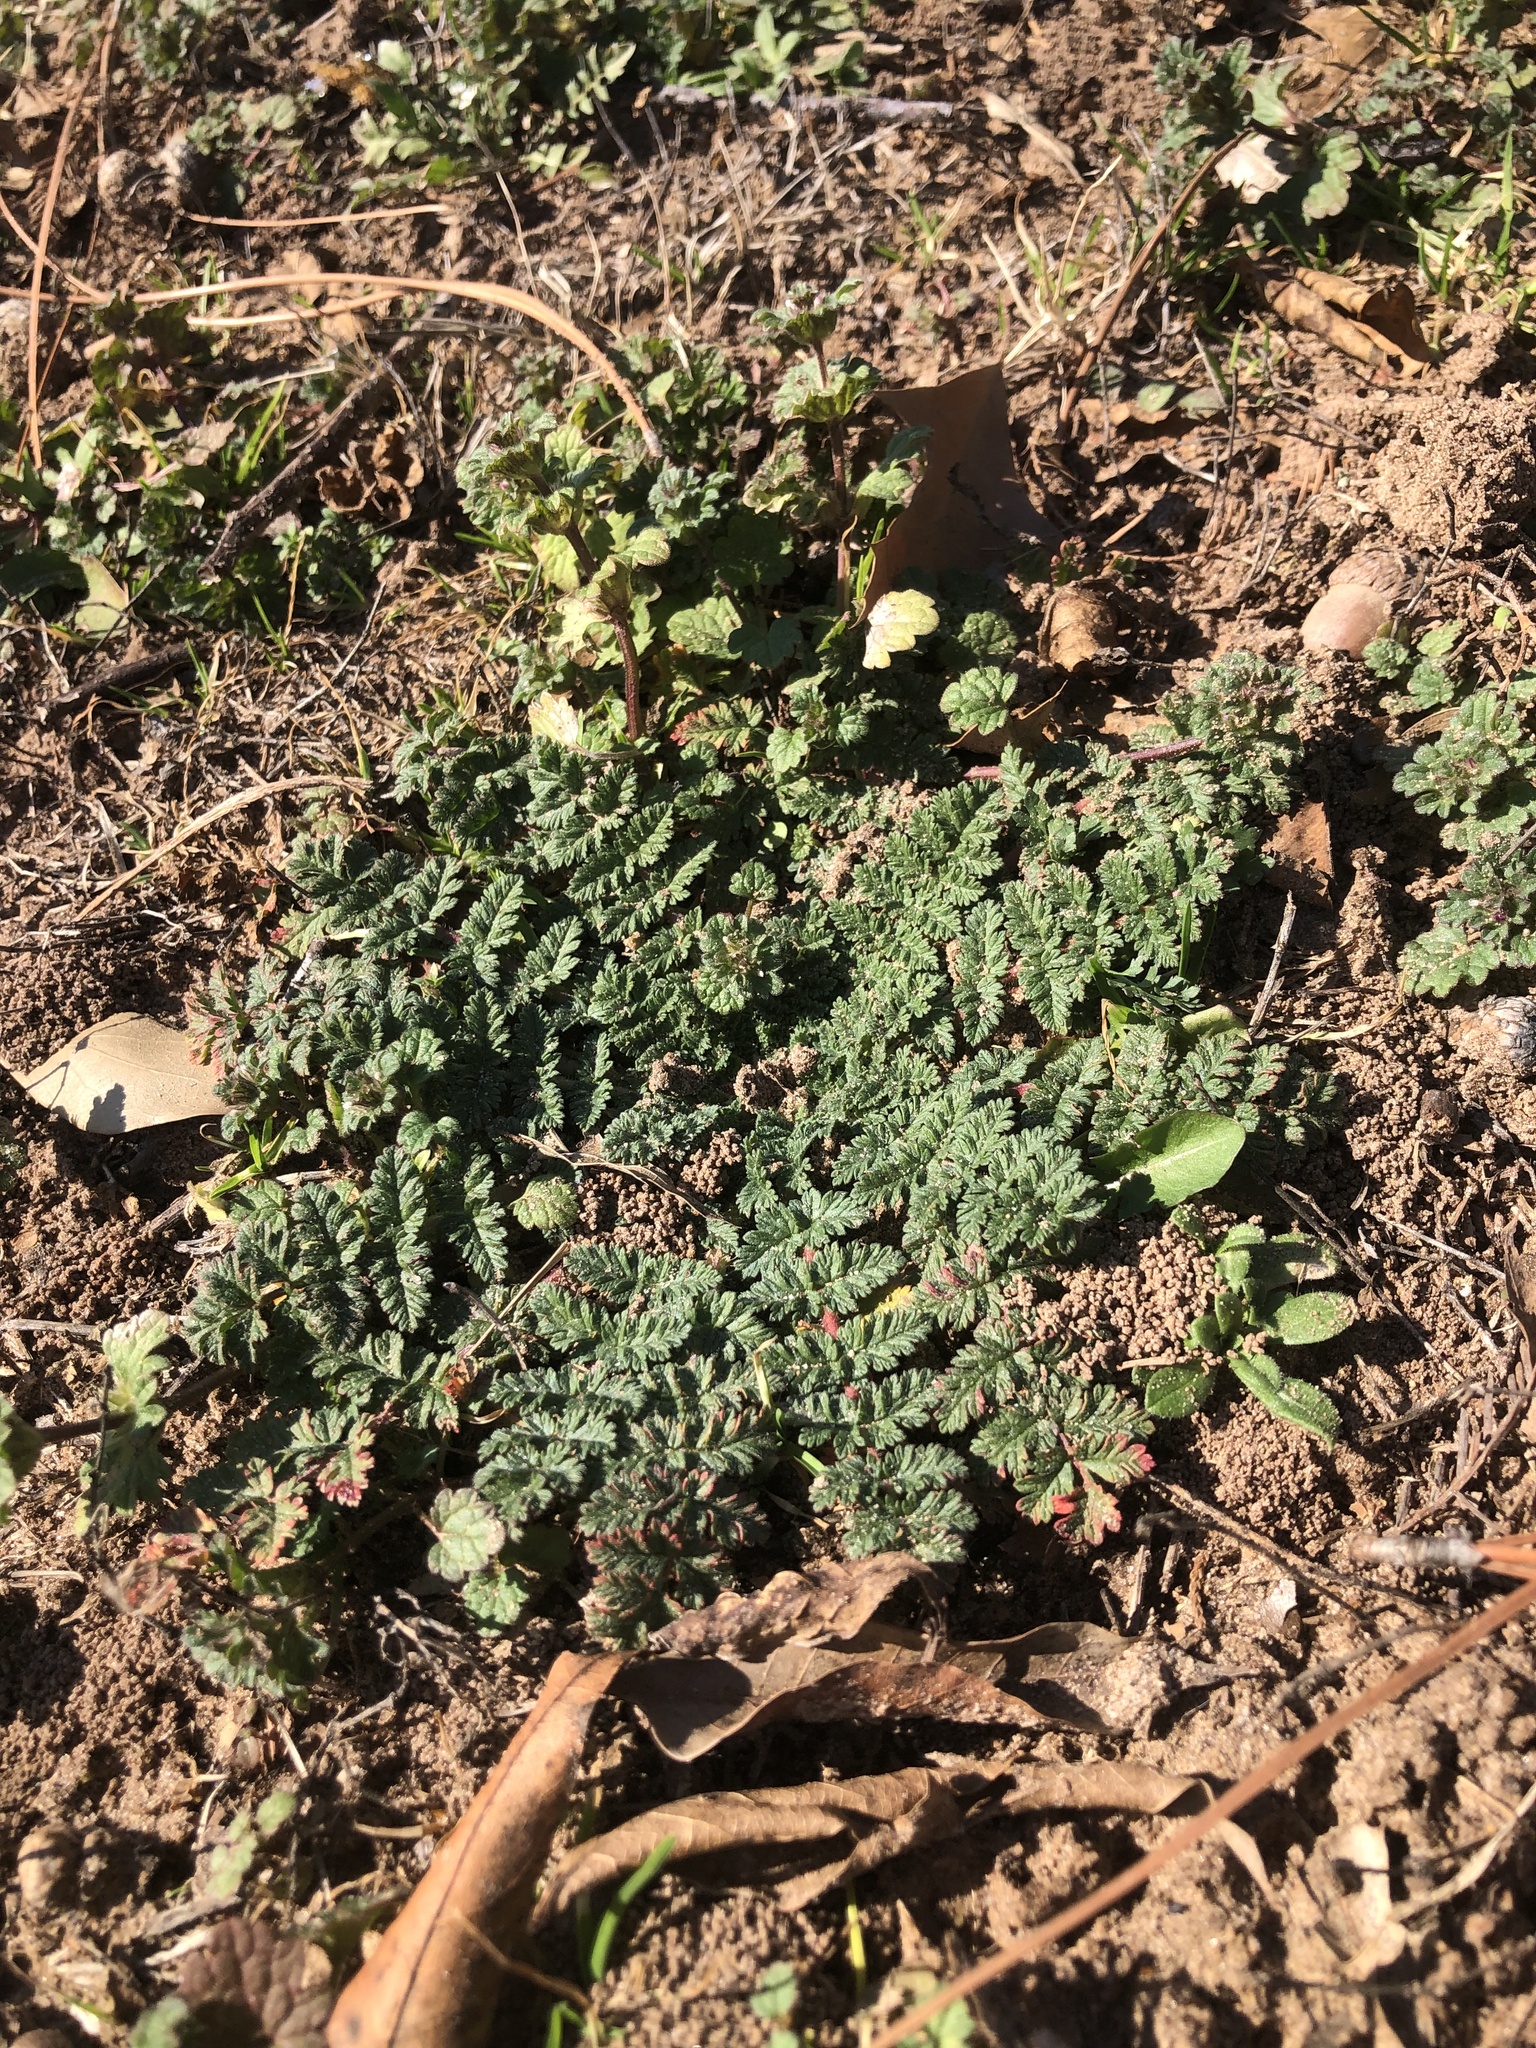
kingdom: Plantae
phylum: Tracheophyta
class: Magnoliopsida
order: Geraniales
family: Geraniaceae
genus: Erodium
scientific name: Erodium cicutarium
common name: Common stork's-bill
